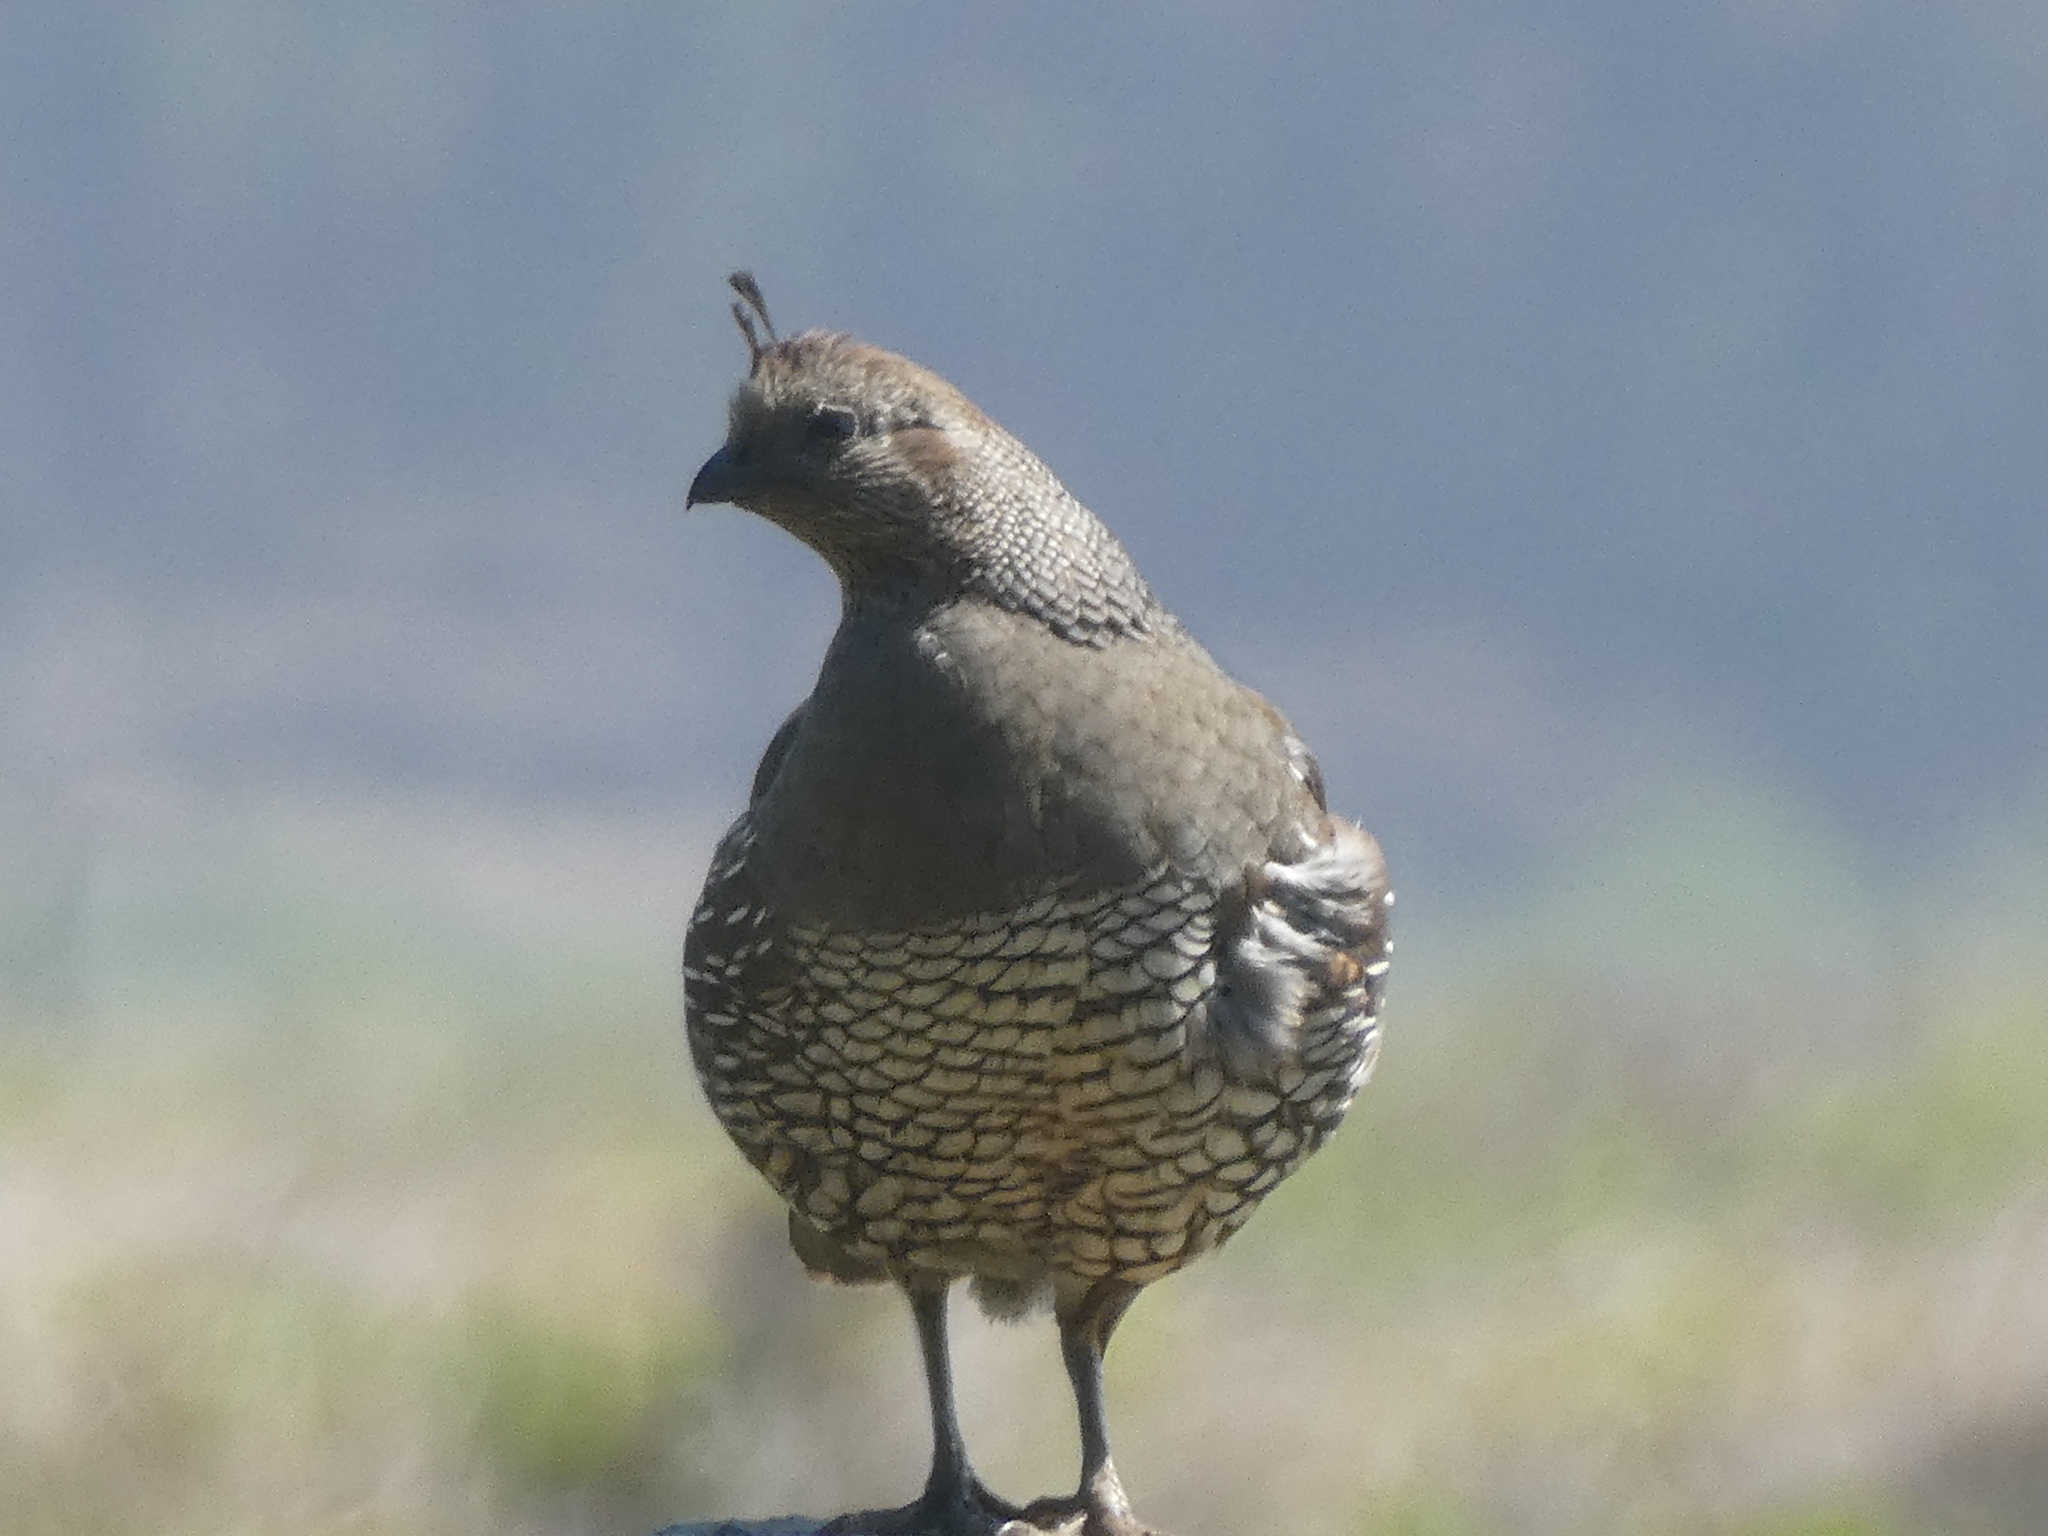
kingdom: Animalia
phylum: Chordata
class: Aves
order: Galliformes
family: Odontophoridae
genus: Callipepla
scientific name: Callipepla californica
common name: California quail
